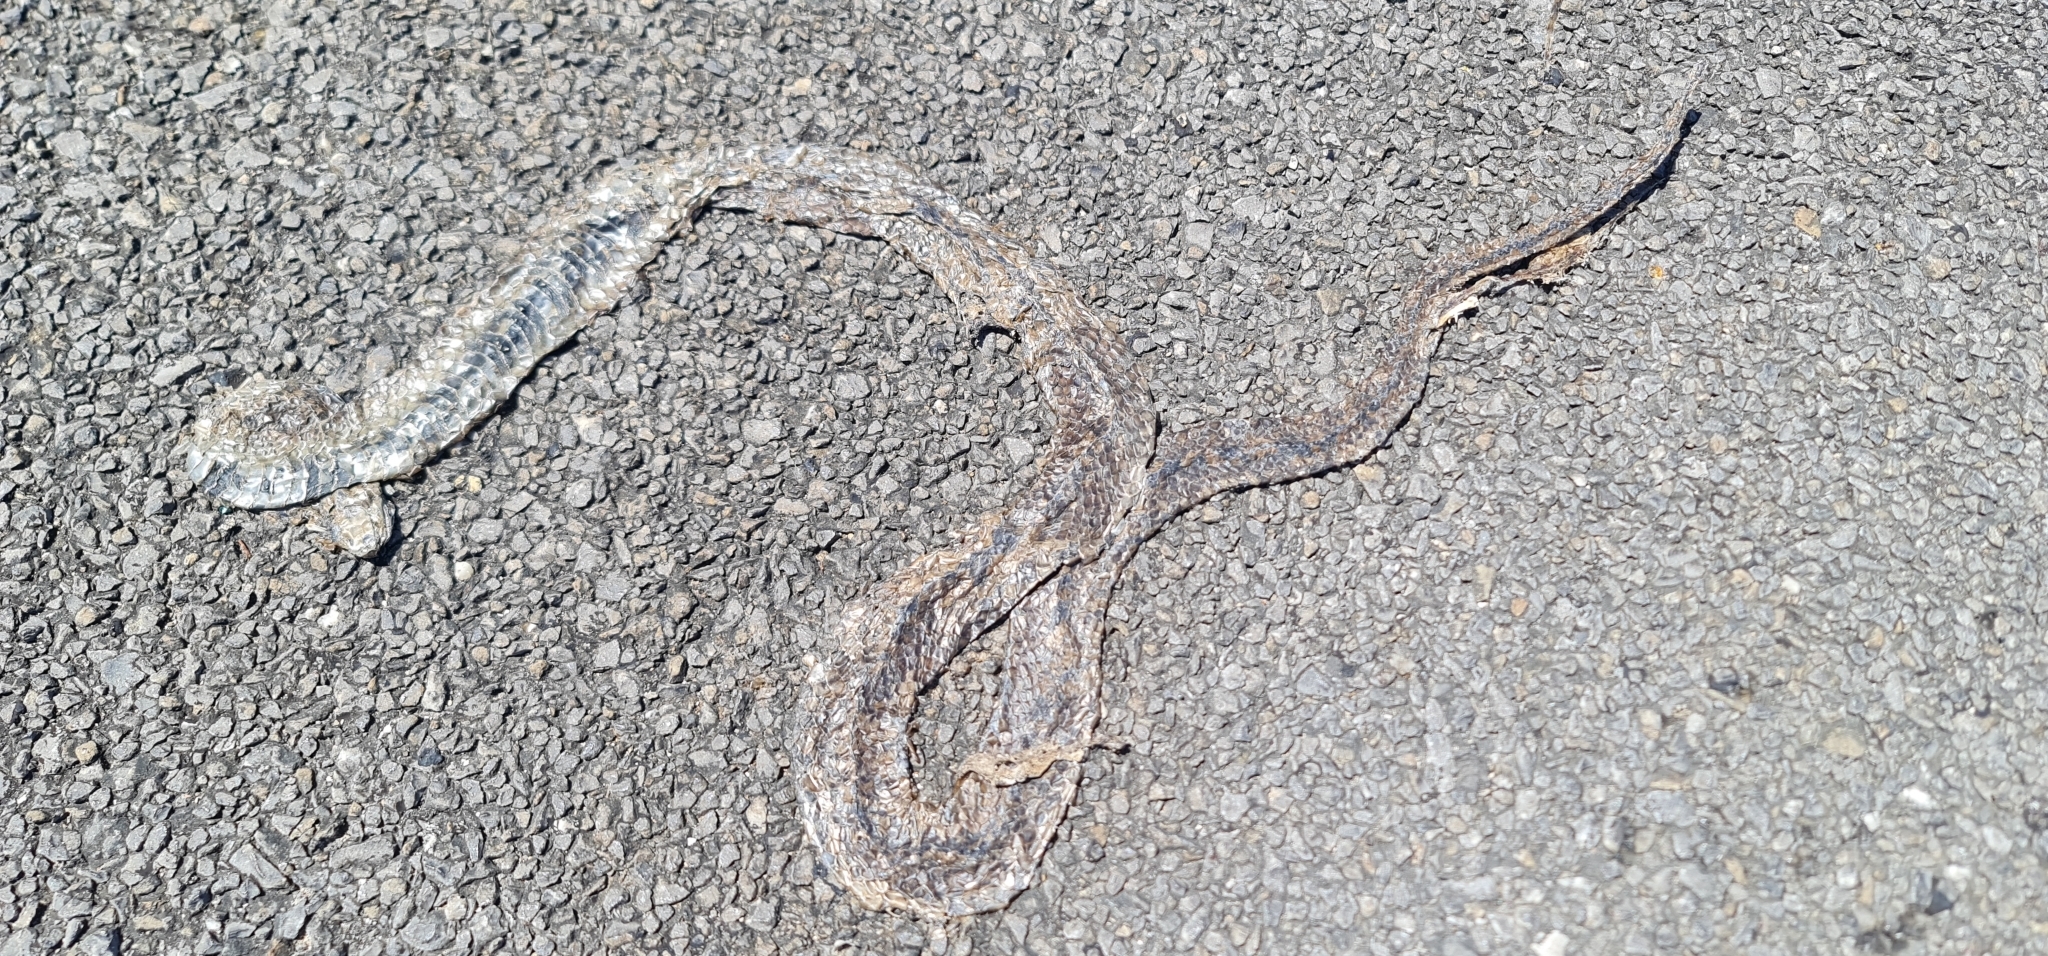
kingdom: Animalia
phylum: Chordata
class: Squamata
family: Elapidae
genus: Pseudonaja
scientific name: Pseudonaja inframacula
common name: Peninsula brown snake
